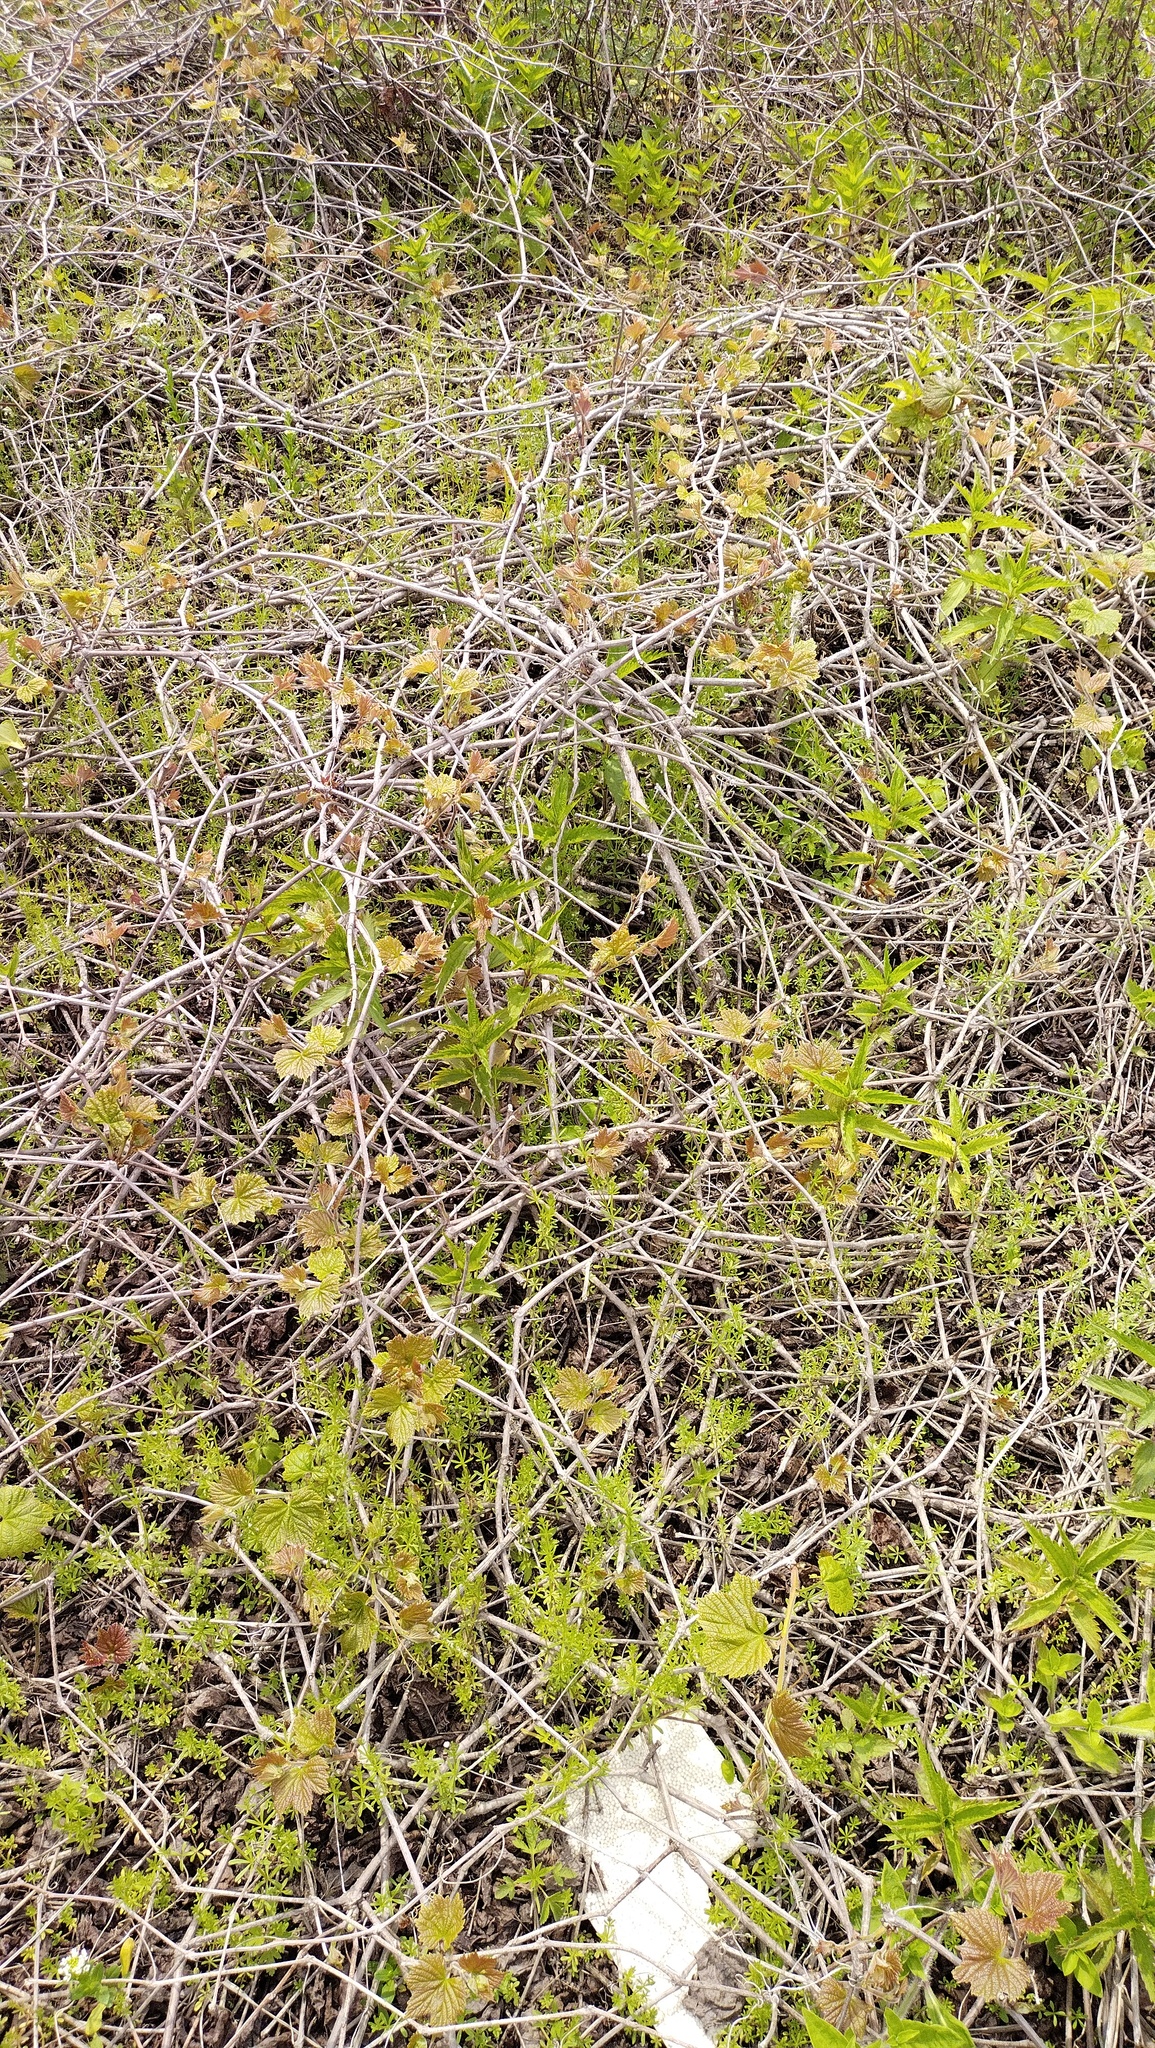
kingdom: Plantae
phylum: Tracheophyta
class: Magnoliopsida
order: Vitales
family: Vitaceae
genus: Ampelopsis
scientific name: Ampelopsis glandulosa
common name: Amur peppervine
